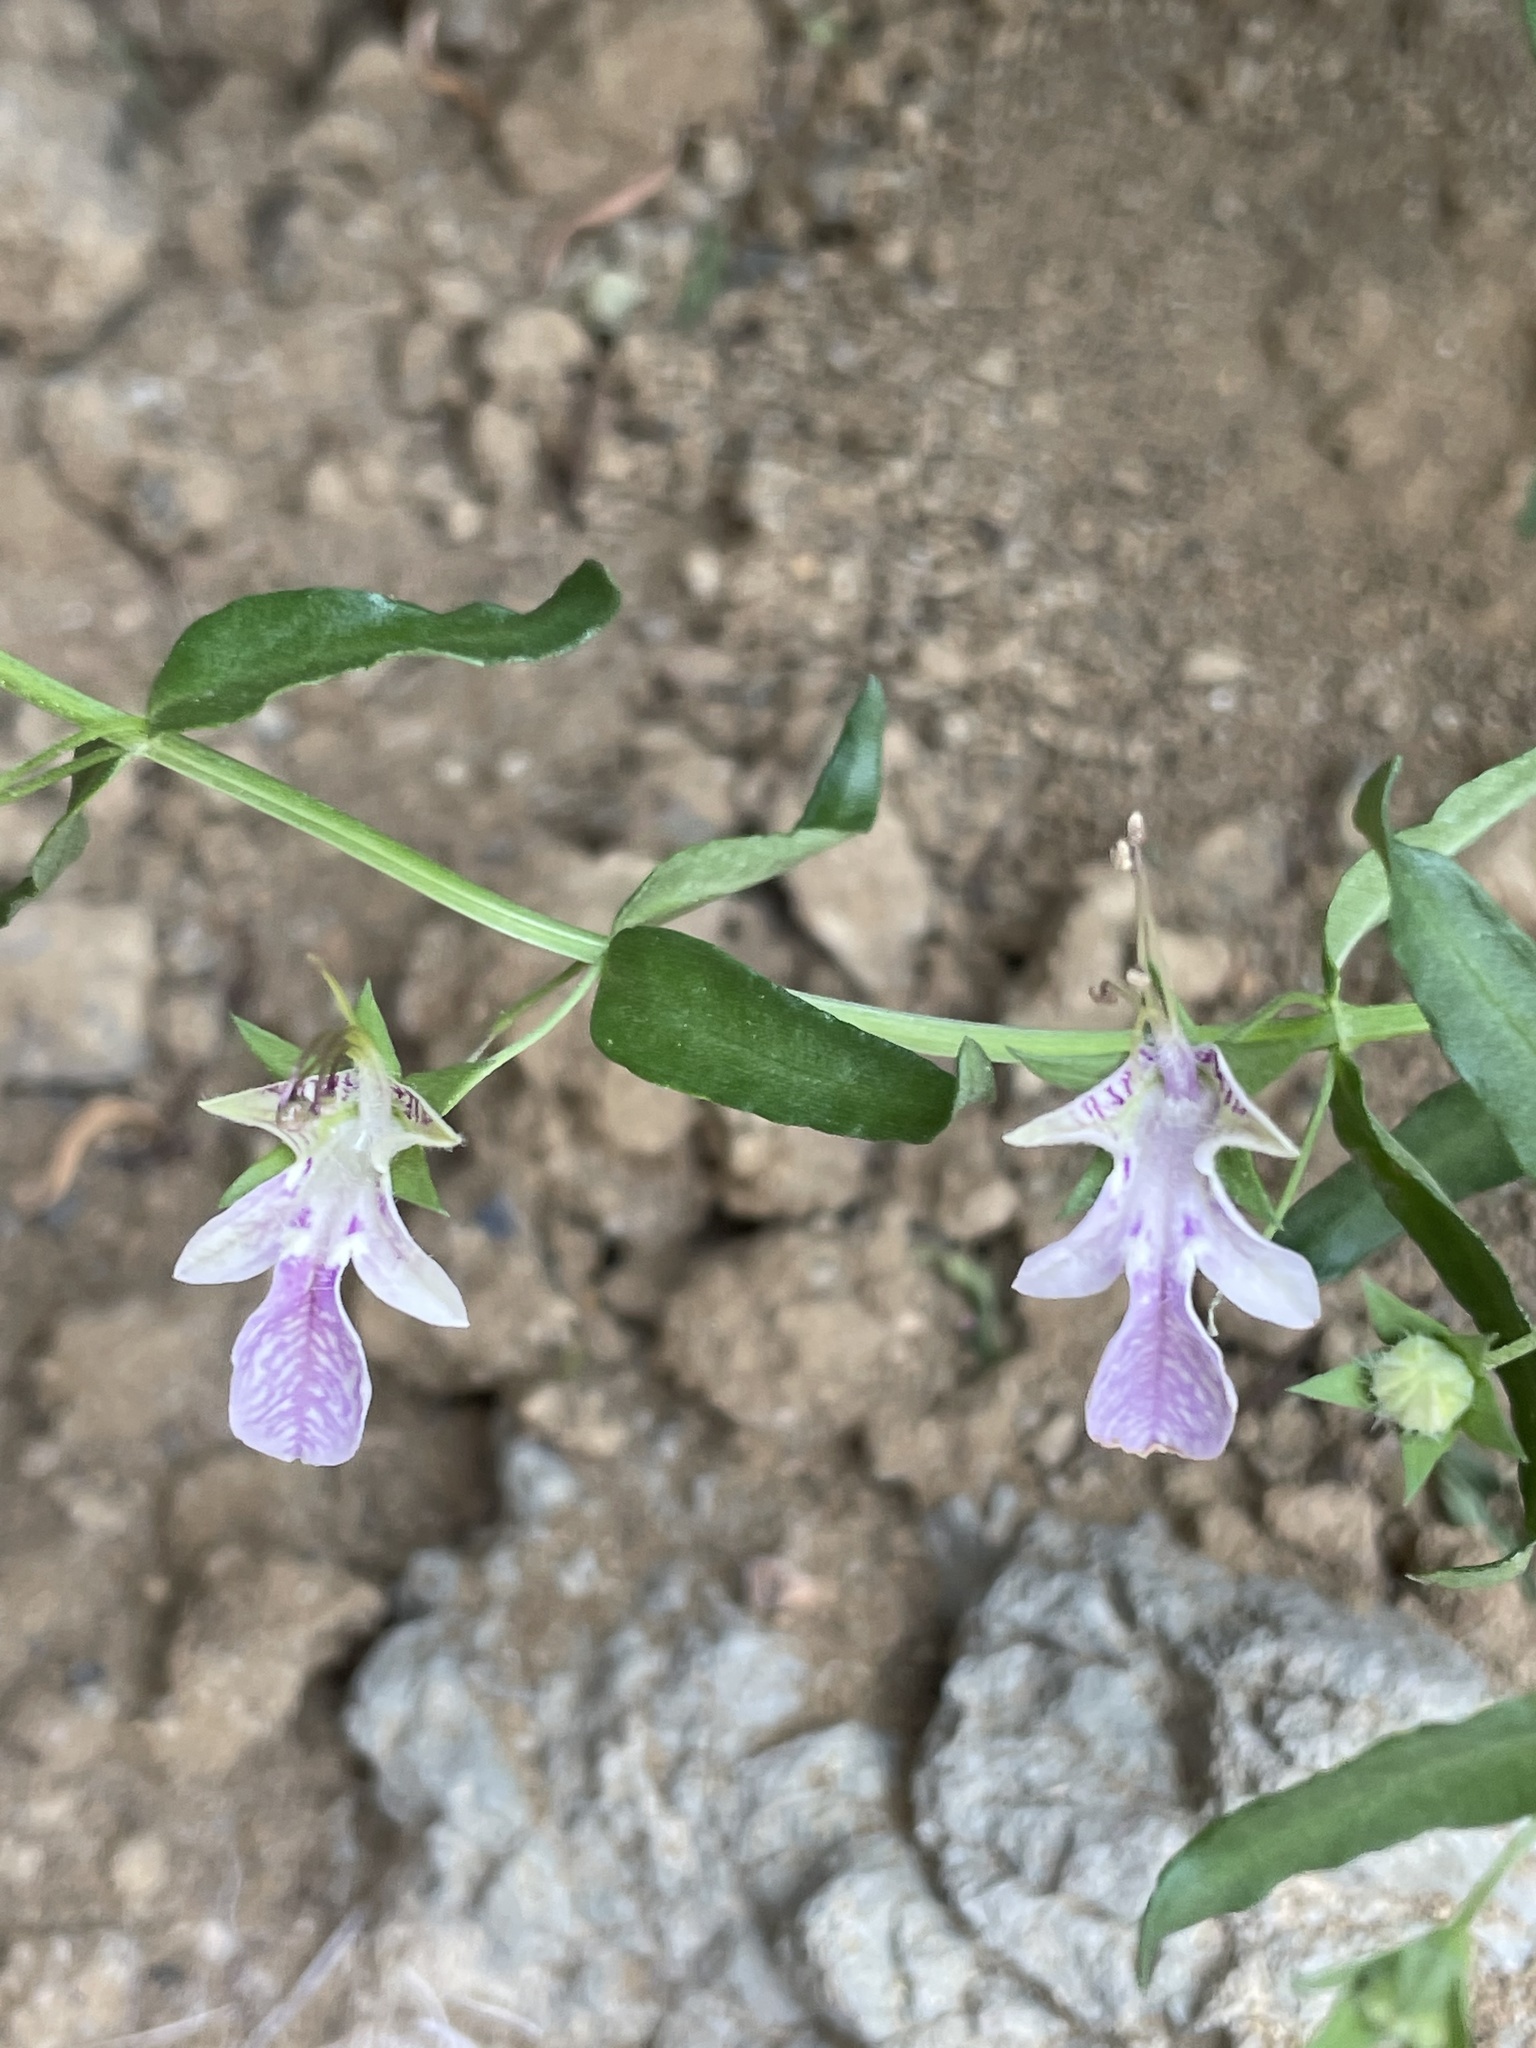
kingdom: Plantae
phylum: Tracheophyta
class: Magnoliopsida
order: Lamiales
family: Lamiaceae
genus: Teucrium
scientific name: Teucrium glandulosum
